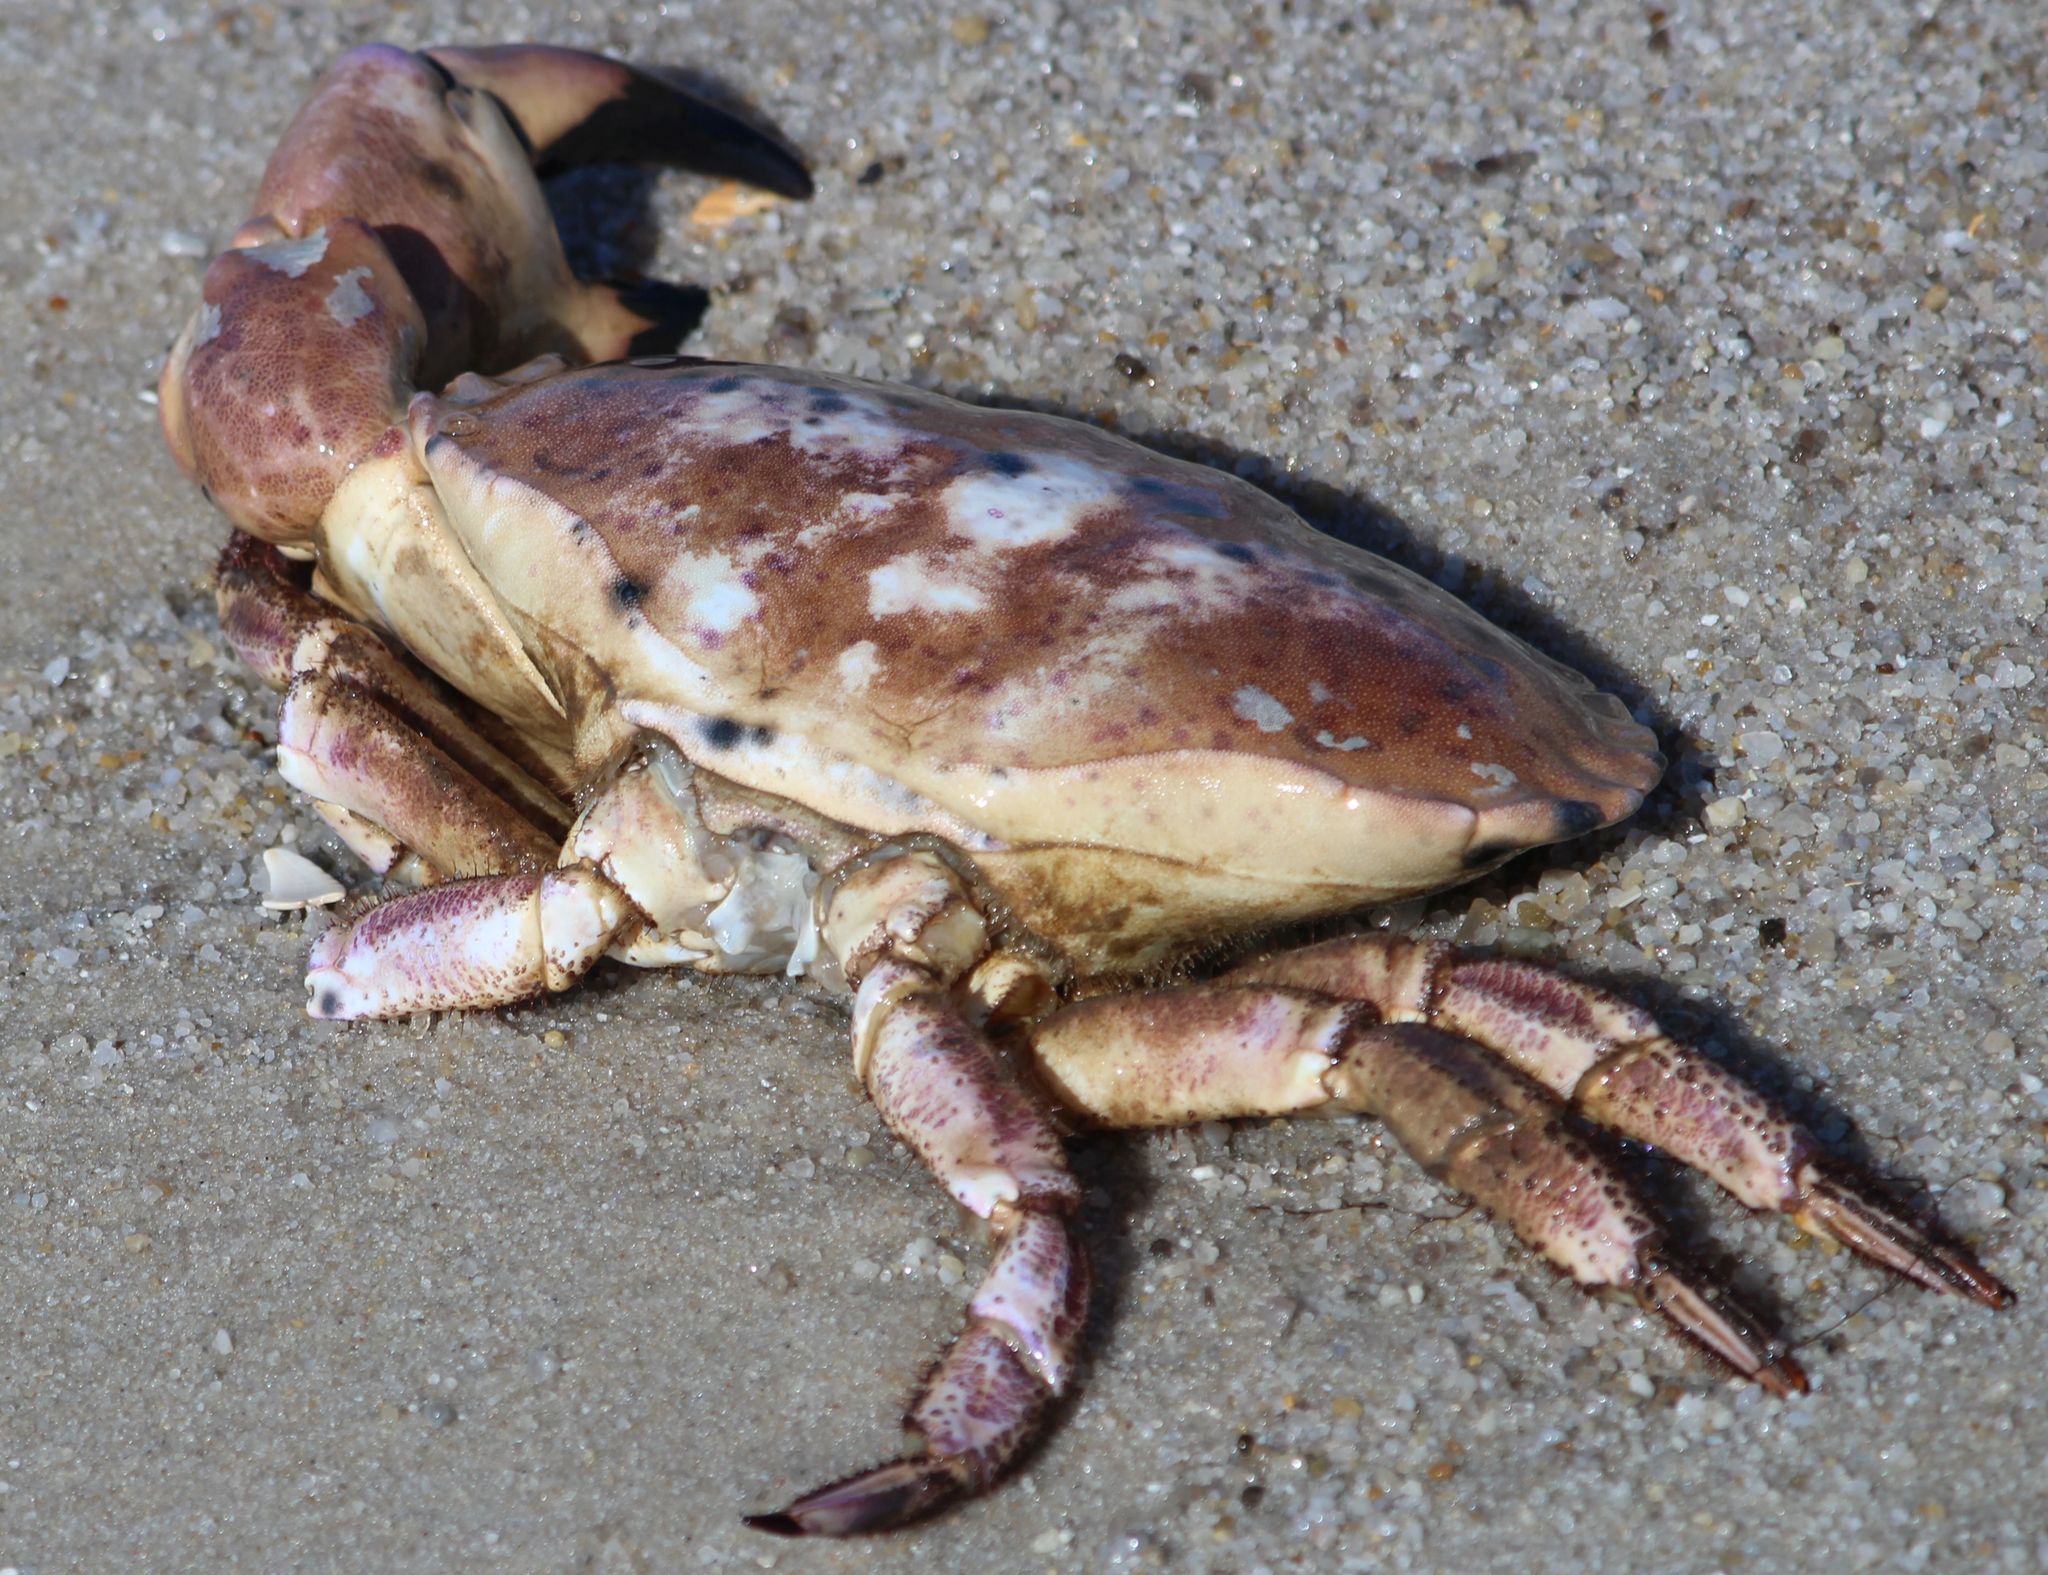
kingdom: Animalia
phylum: Arthropoda
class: Malacostraca
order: Decapoda
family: Cancridae
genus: Cancer
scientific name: Cancer pagurus
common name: Edible crab
